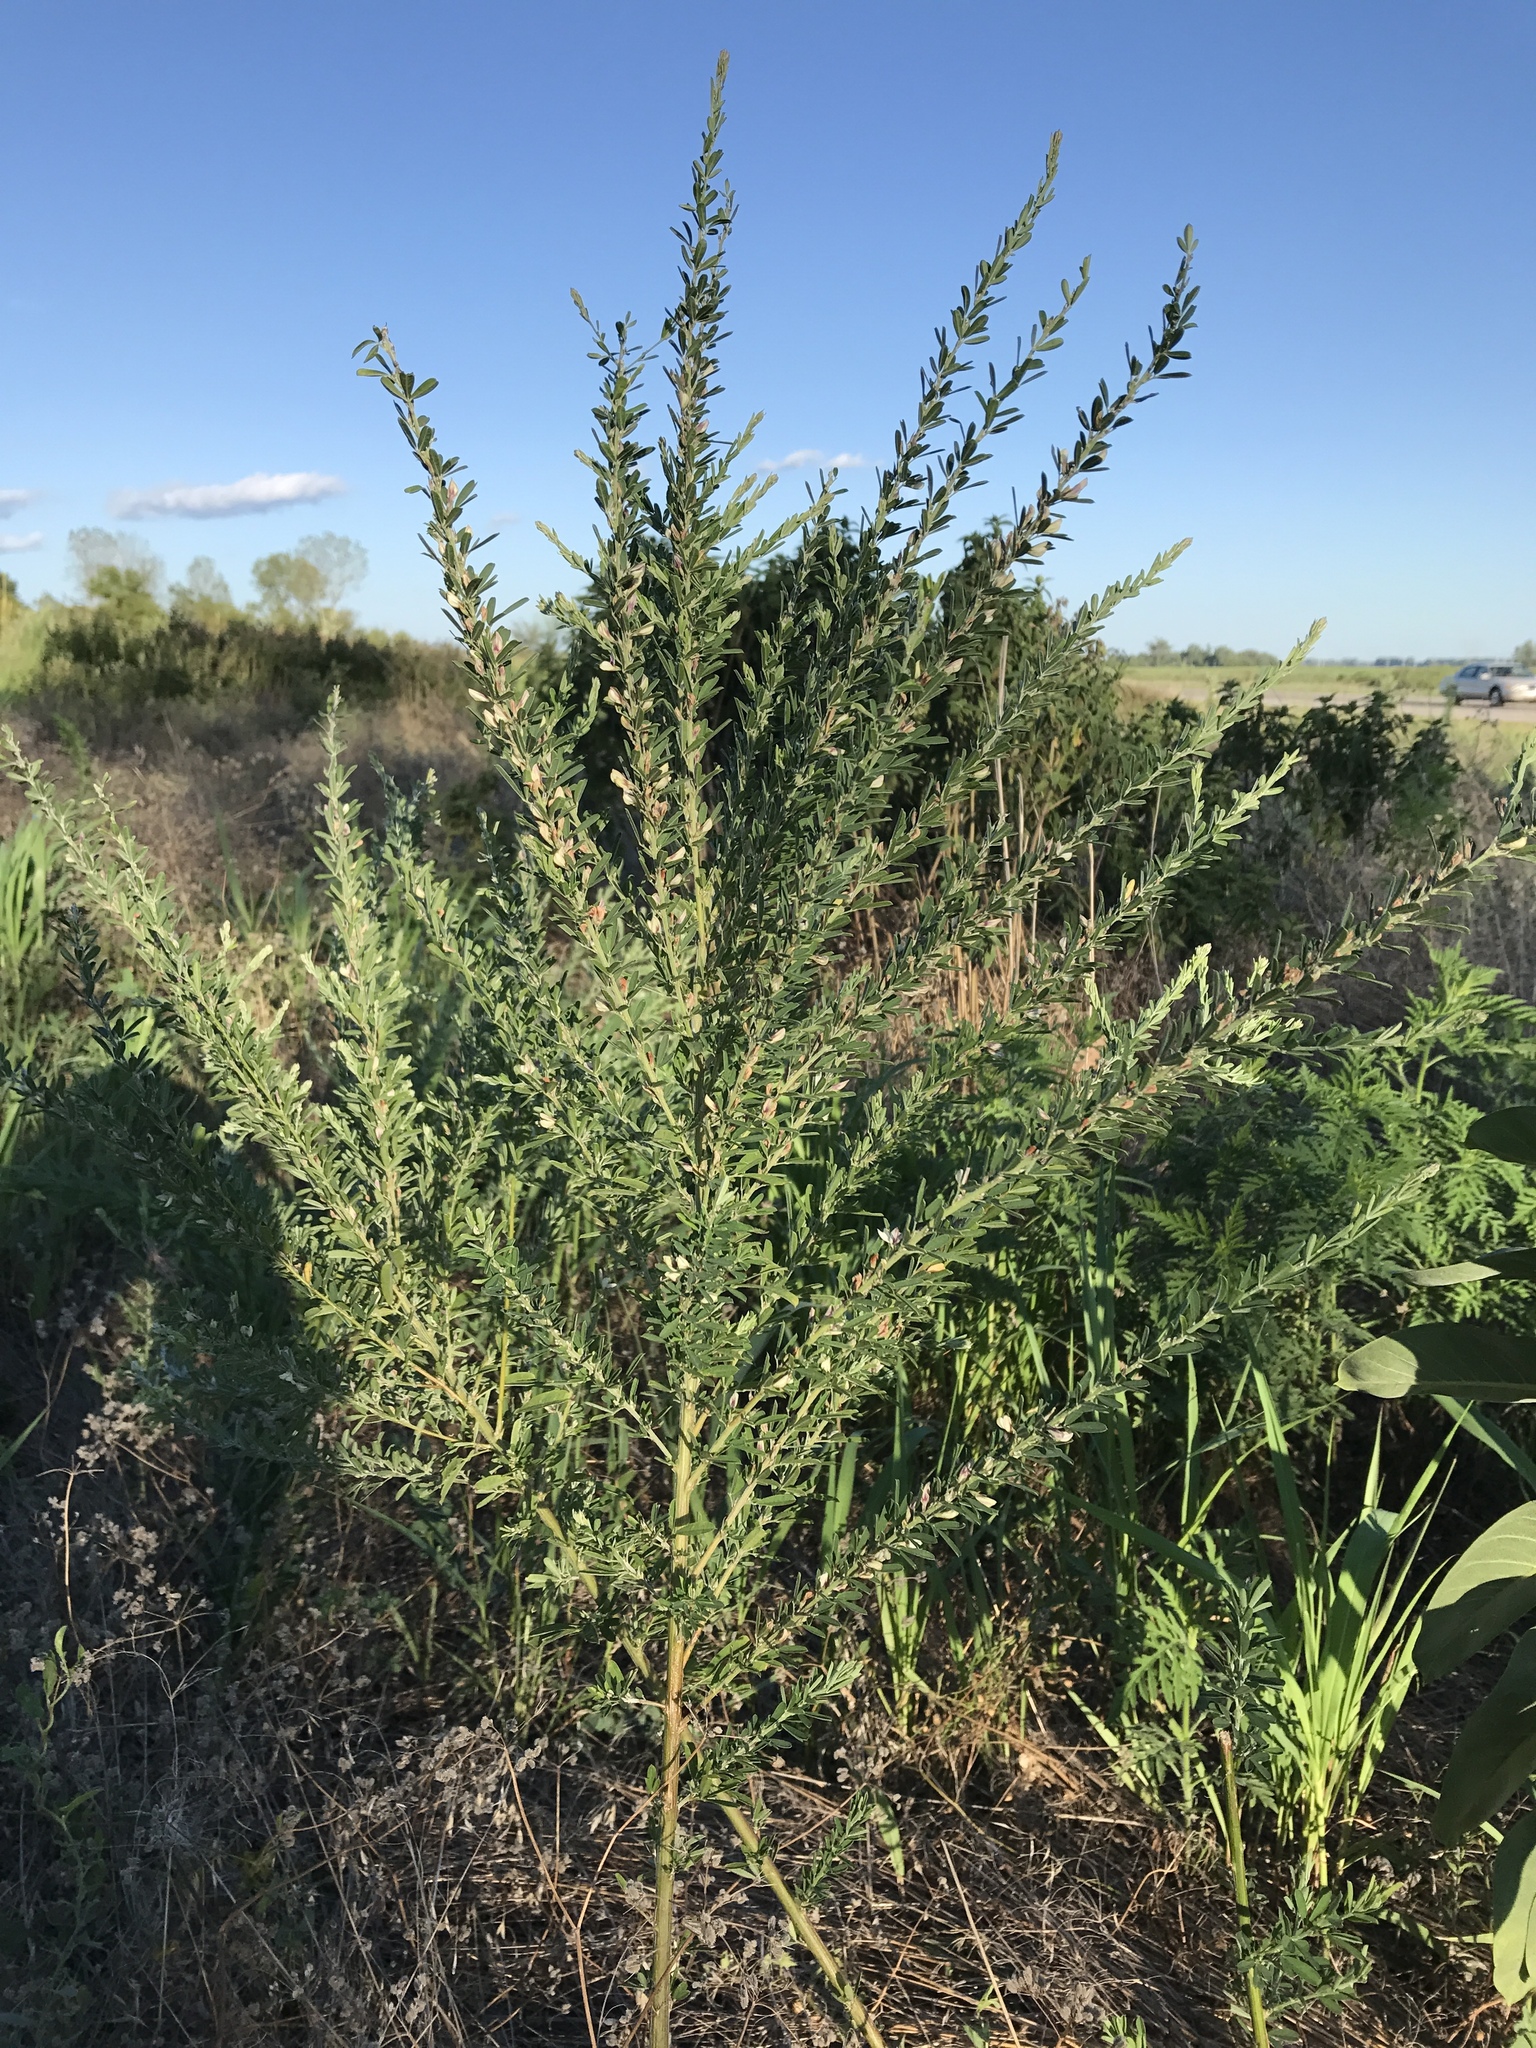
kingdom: Plantae
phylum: Tracheophyta
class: Magnoliopsida
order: Fabales
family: Fabaceae
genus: Lespedeza
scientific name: Lespedeza cuneata
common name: Chinese bush-clover
